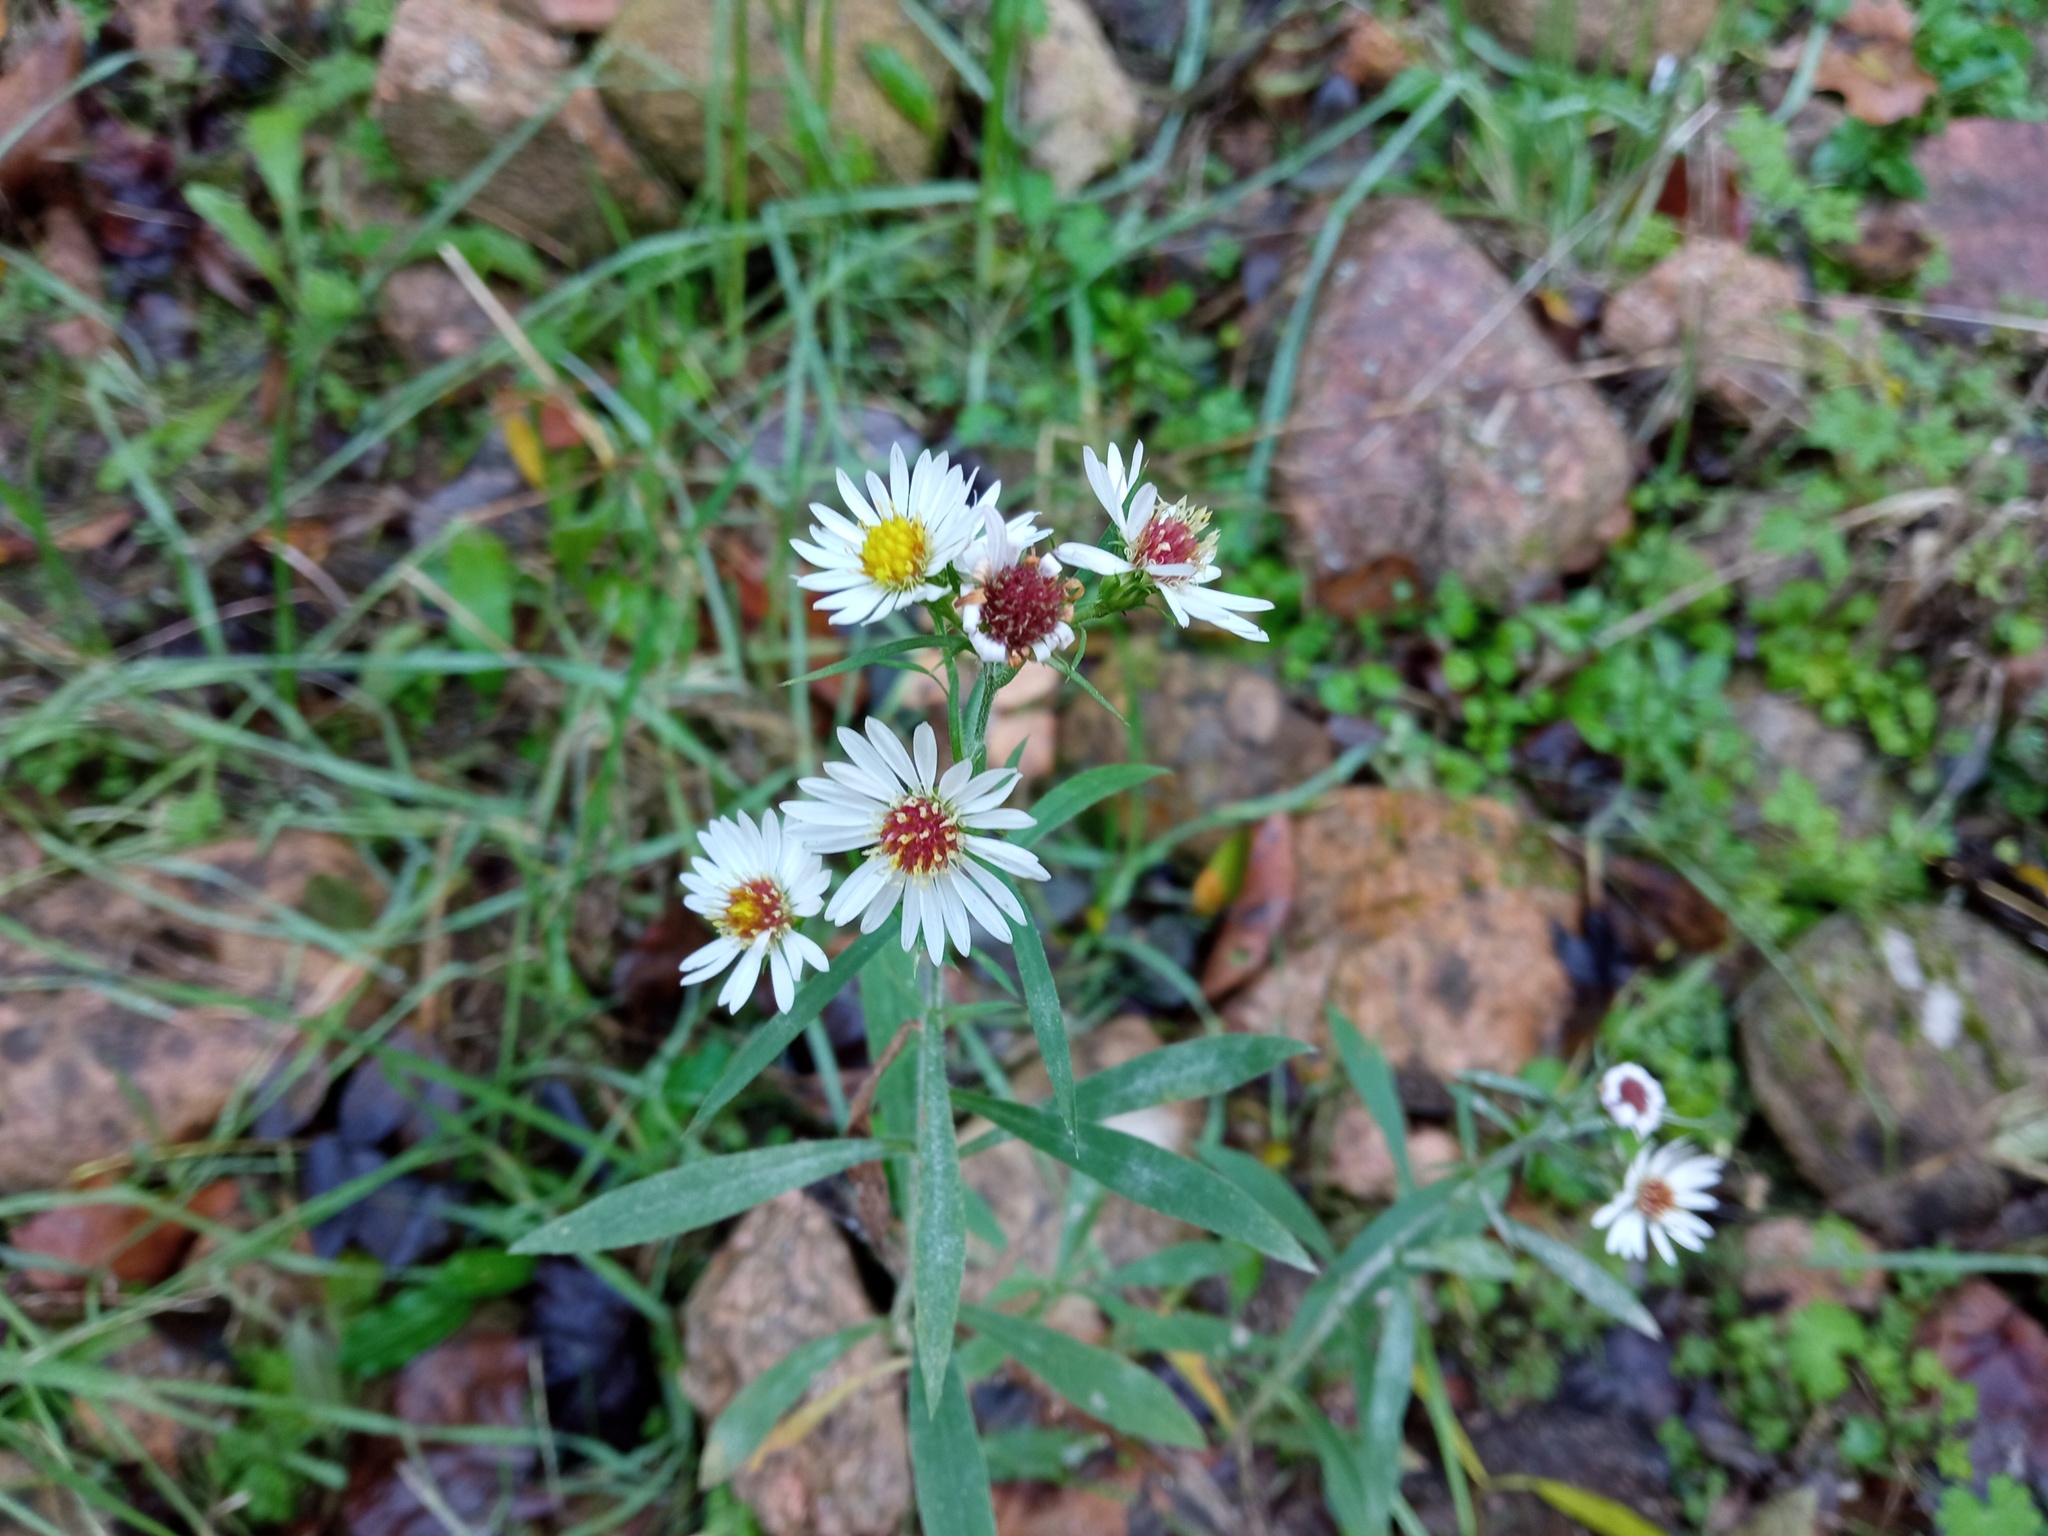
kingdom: Plantae
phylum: Tracheophyta
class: Magnoliopsida
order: Asterales
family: Asteraceae
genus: Symphyotrichum
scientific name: Symphyotrichum pilosum
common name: Awl aster
